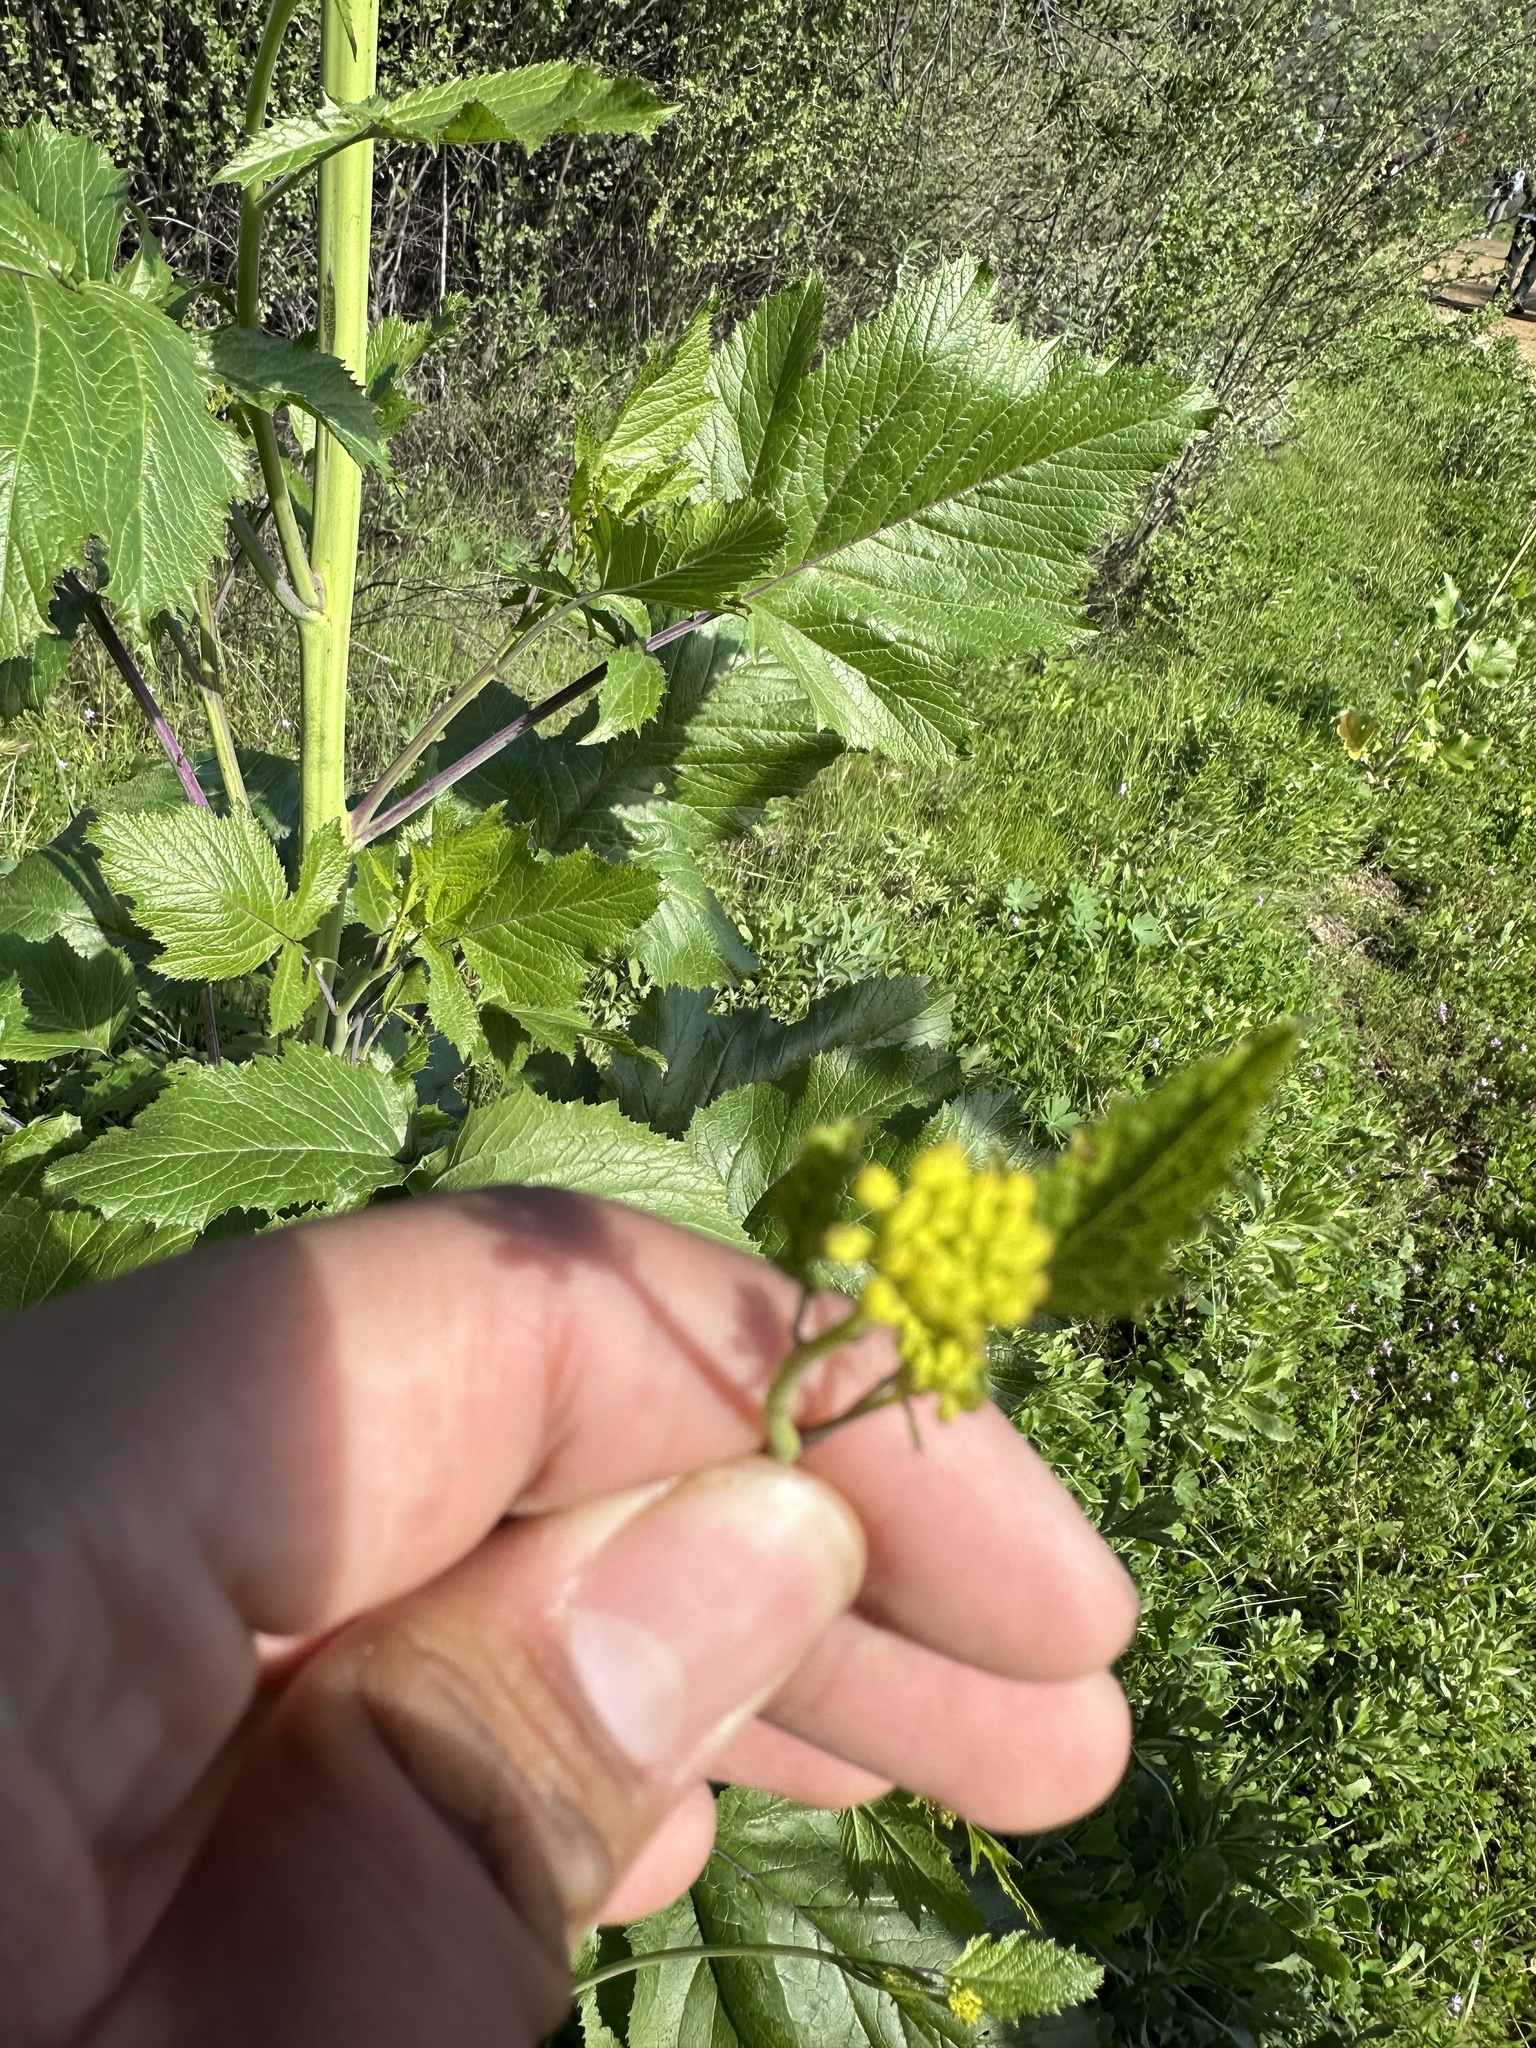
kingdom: Plantae
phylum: Tracheophyta
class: Magnoliopsida
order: Brassicales
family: Brassicaceae
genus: Brassica
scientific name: Brassica nigra
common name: Black mustard
